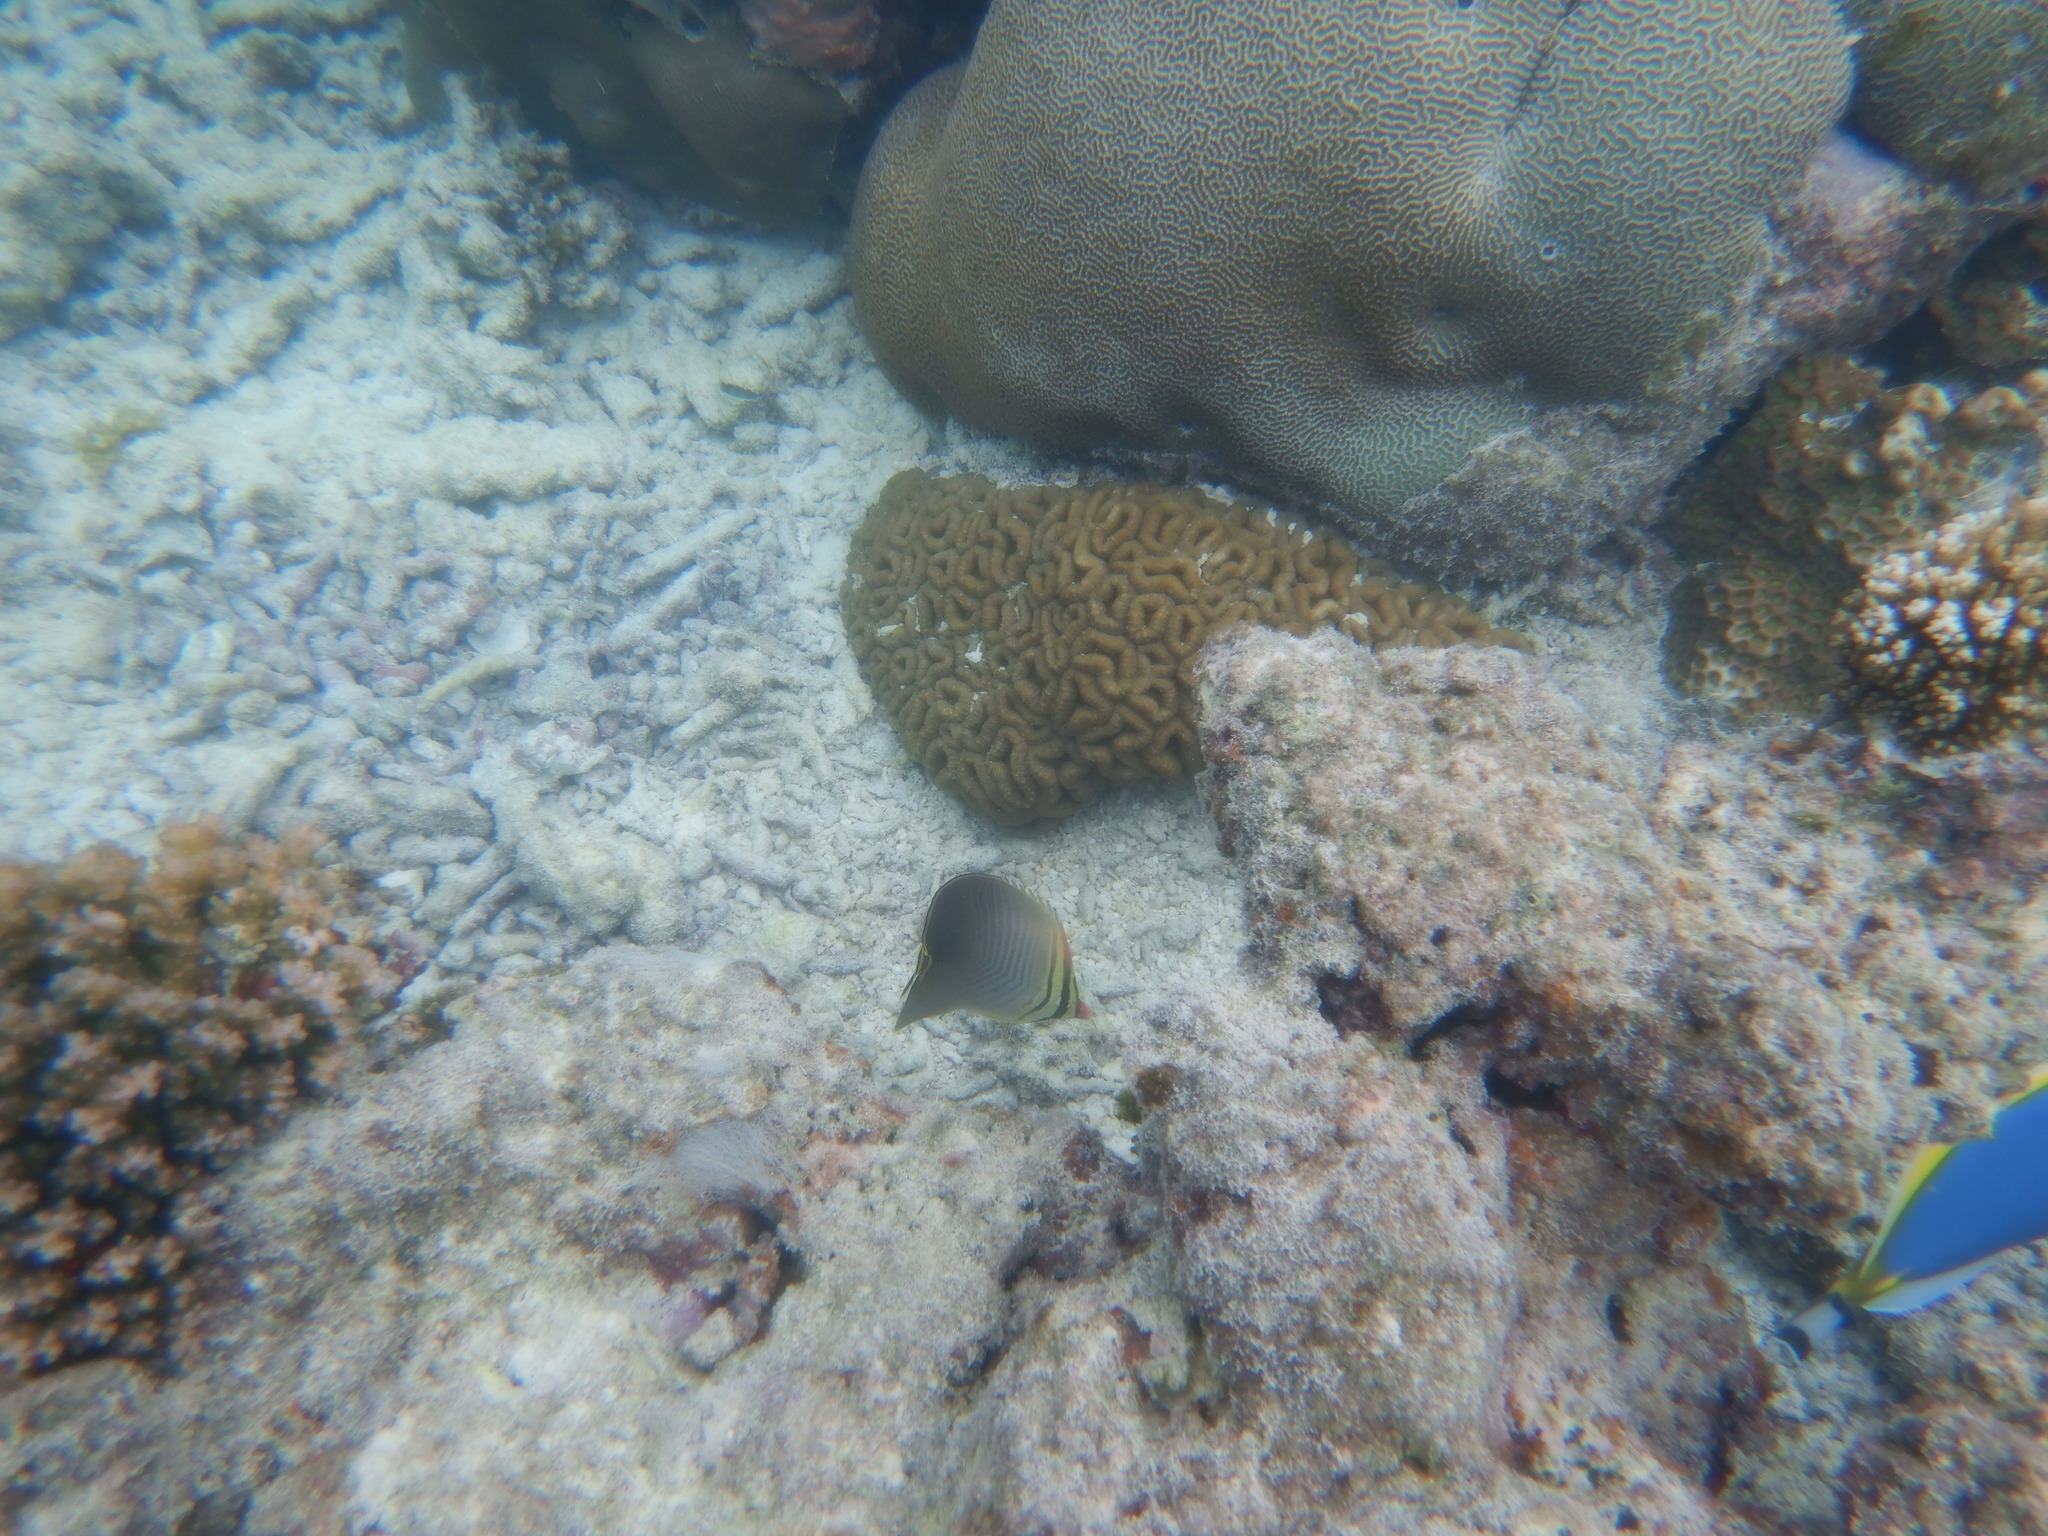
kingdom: Animalia
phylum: Chordata
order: Perciformes
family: Chaetodontidae
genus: Chaetodon
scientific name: Chaetodon triangulum
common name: Triangular butterflyfish
